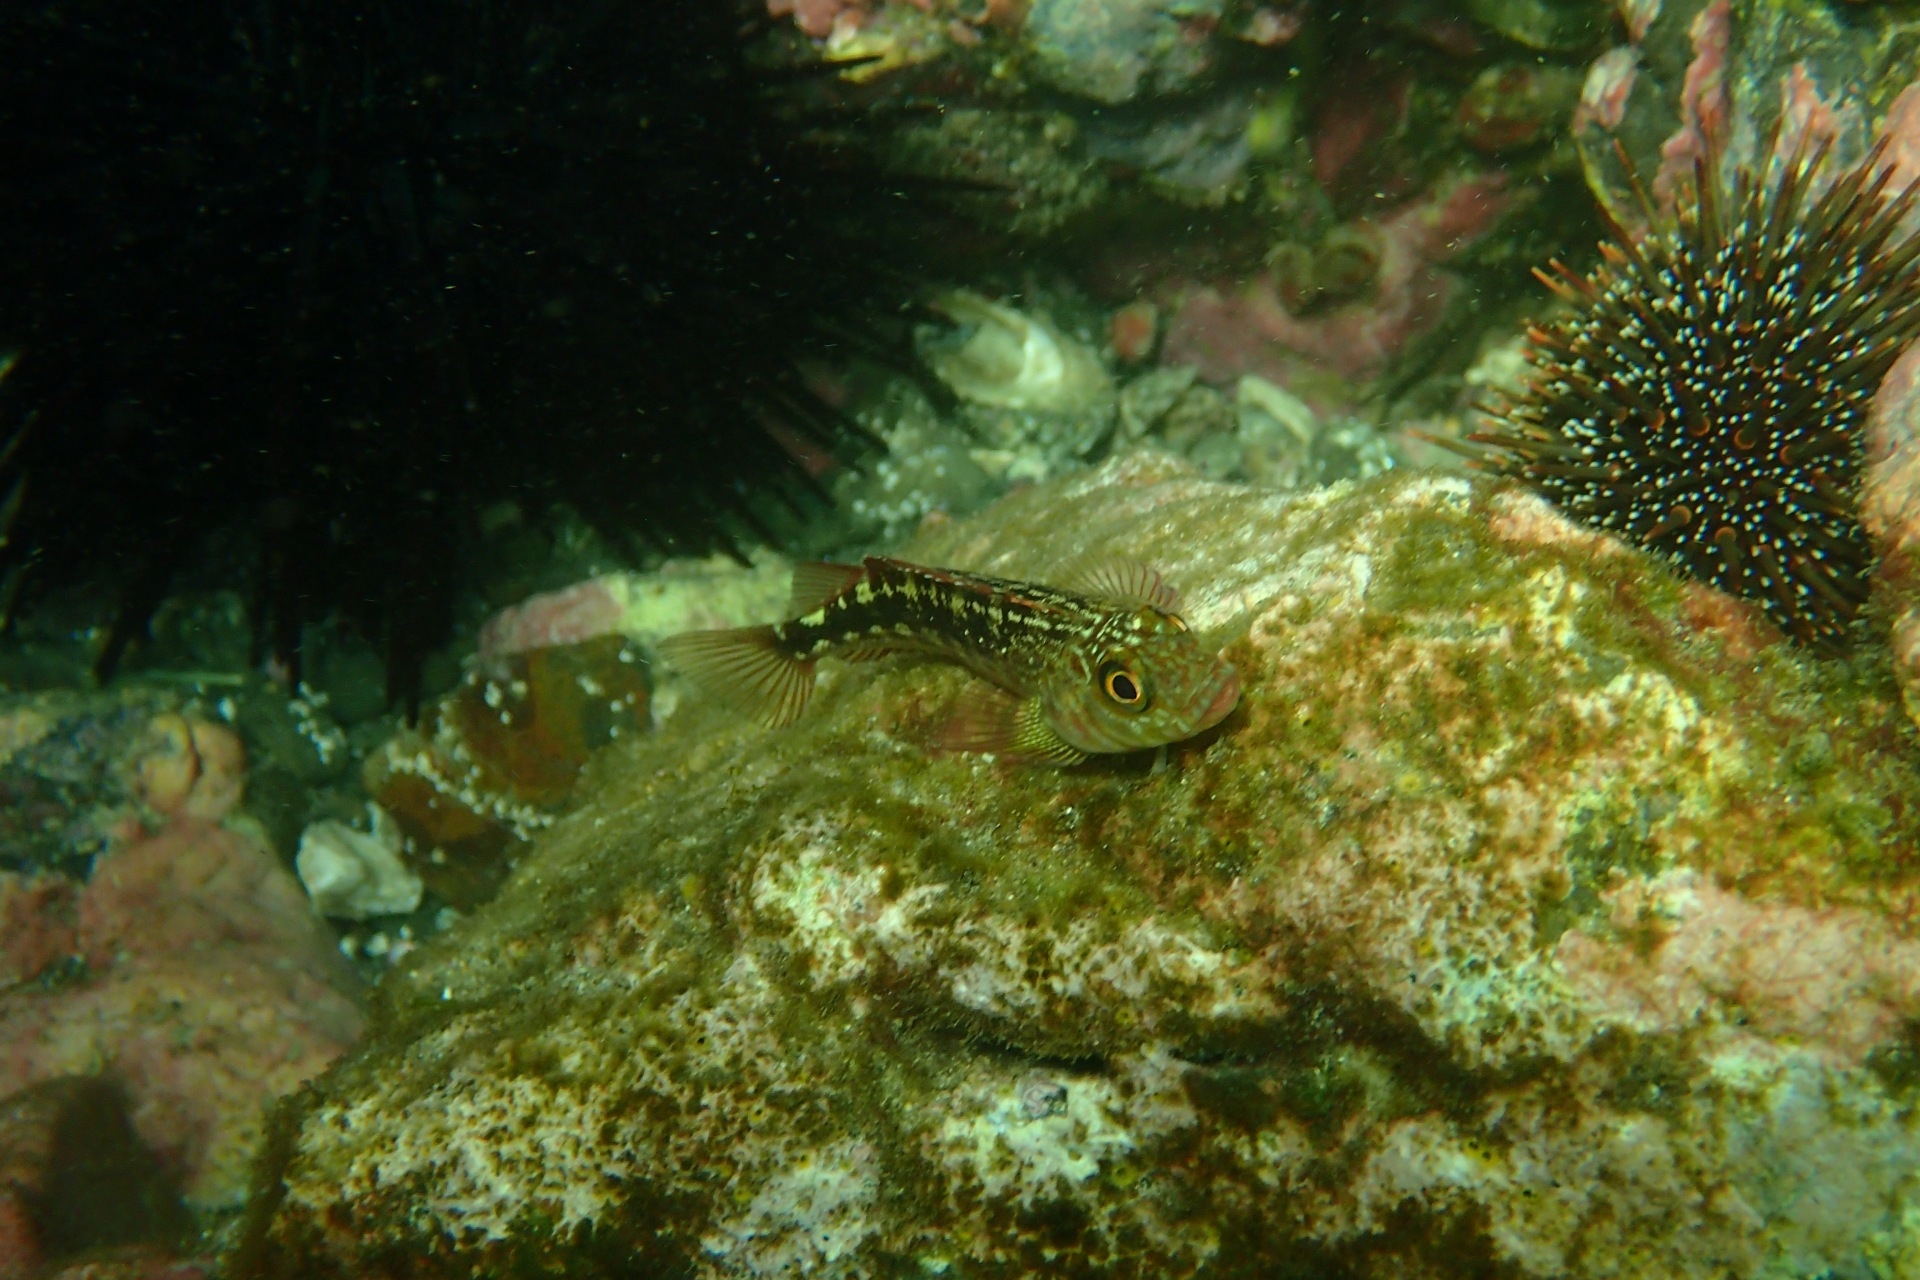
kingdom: Animalia
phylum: Chordata
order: Perciformes
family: Tripterygiidae
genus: Forsterygion
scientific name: Forsterygion varium
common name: Variable triplefin
